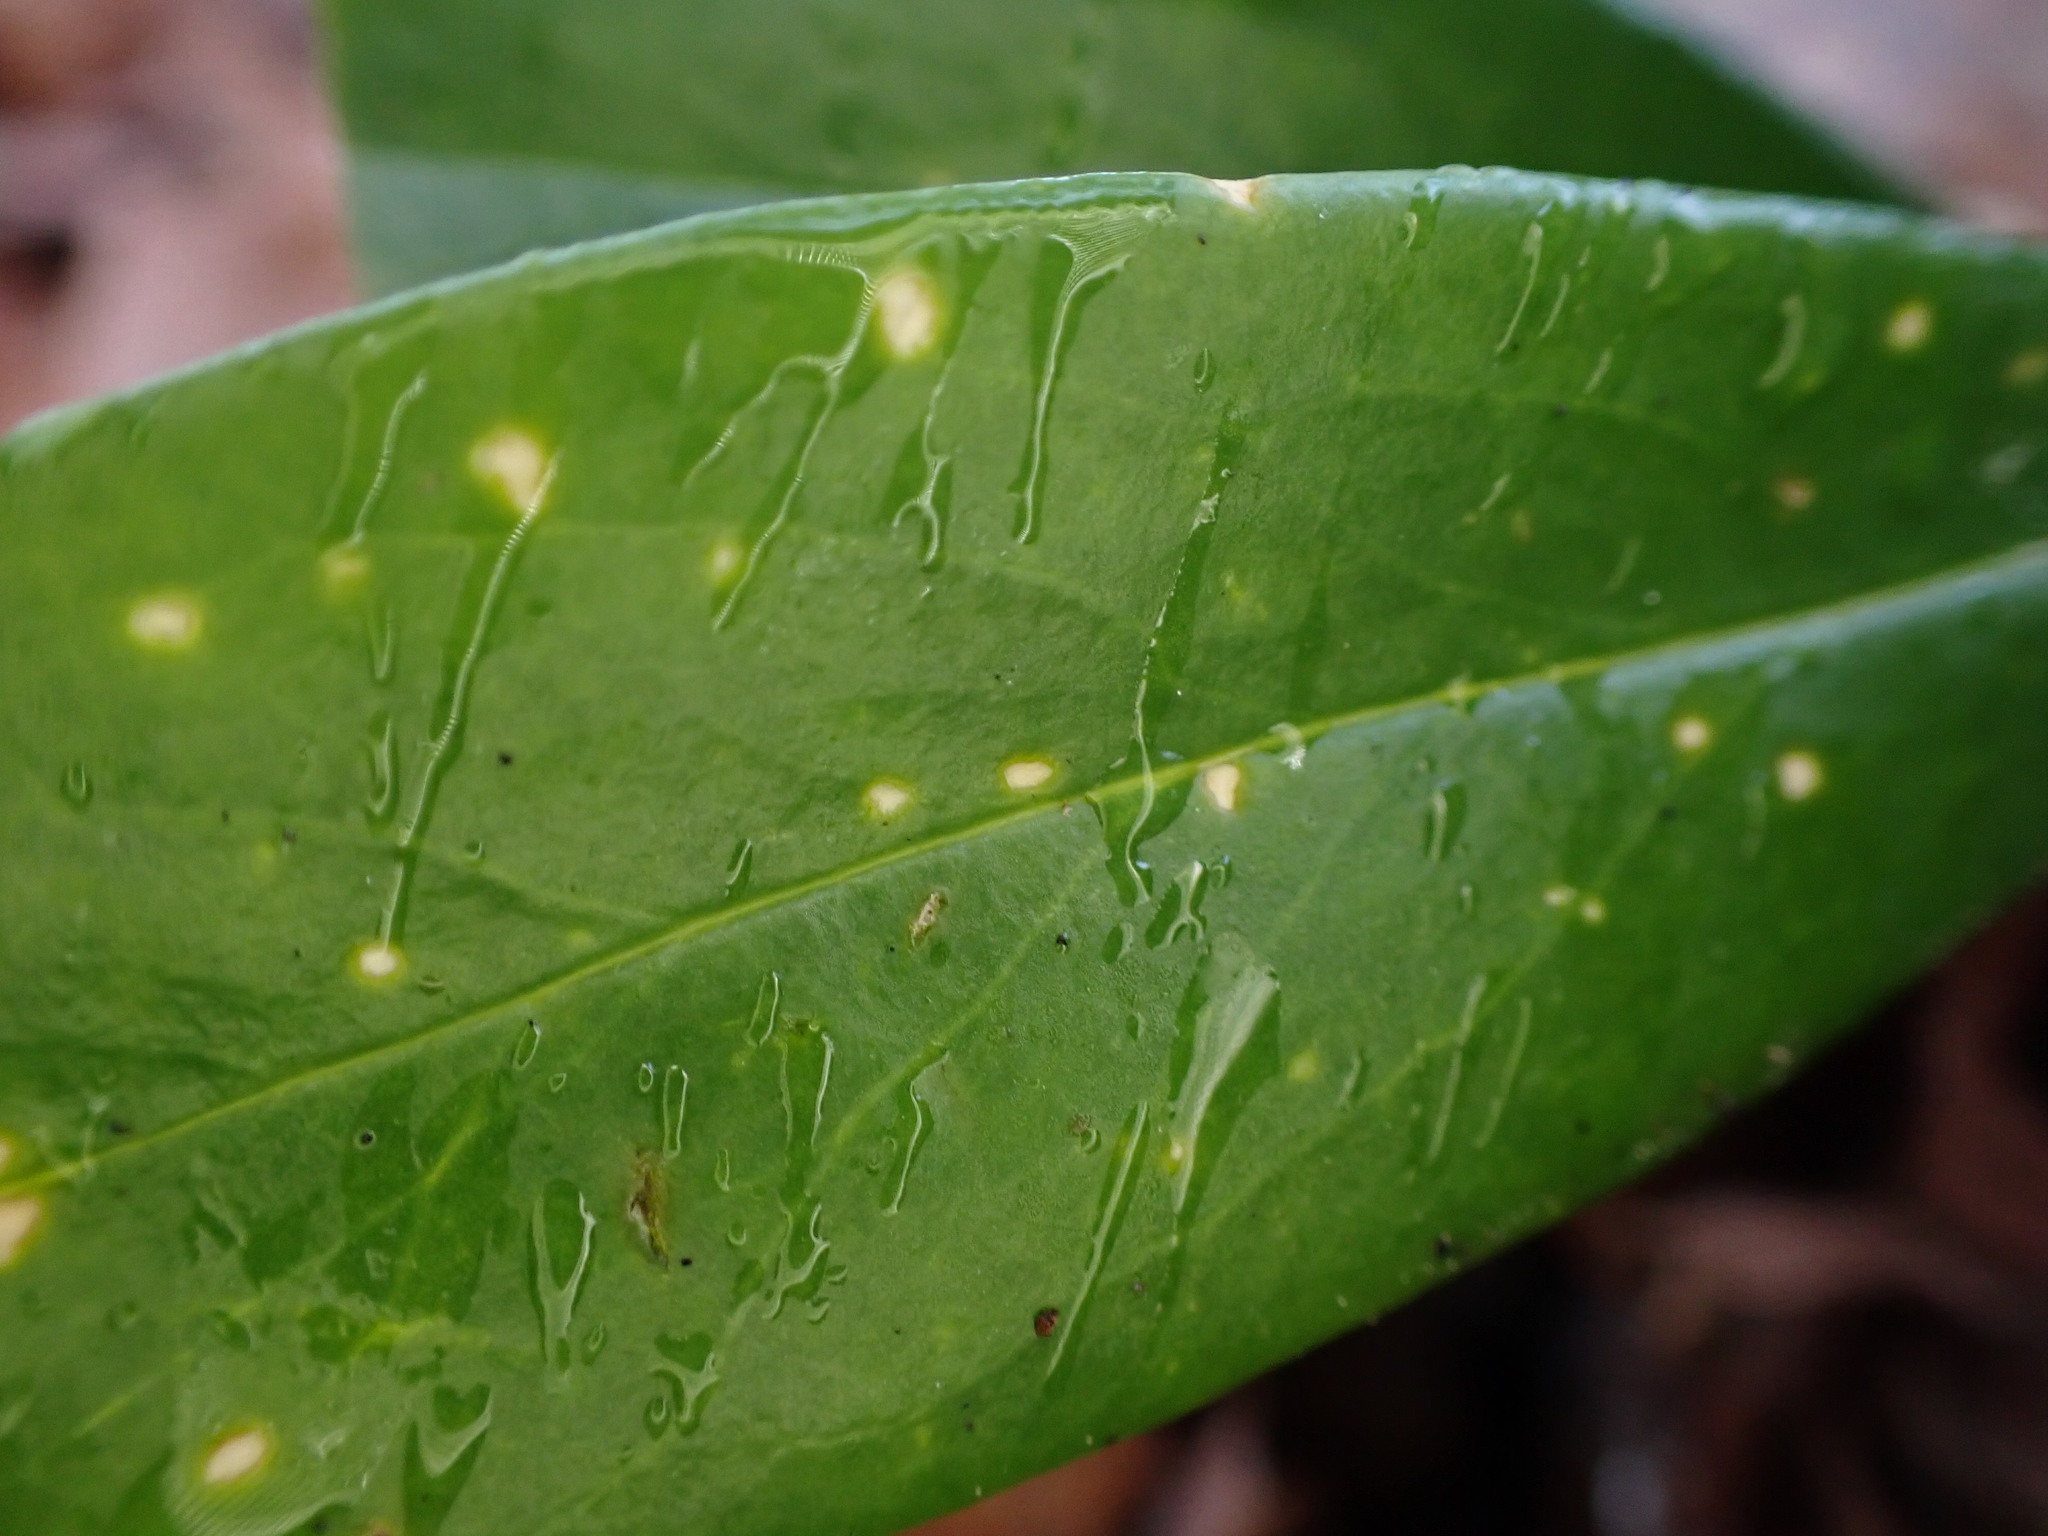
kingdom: Plantae
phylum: Tracheophyta
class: Magnoliopsida
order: Malvales
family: Thymelaeaceae
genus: Daphne
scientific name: Daphne laureola
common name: Spurge-laurel
